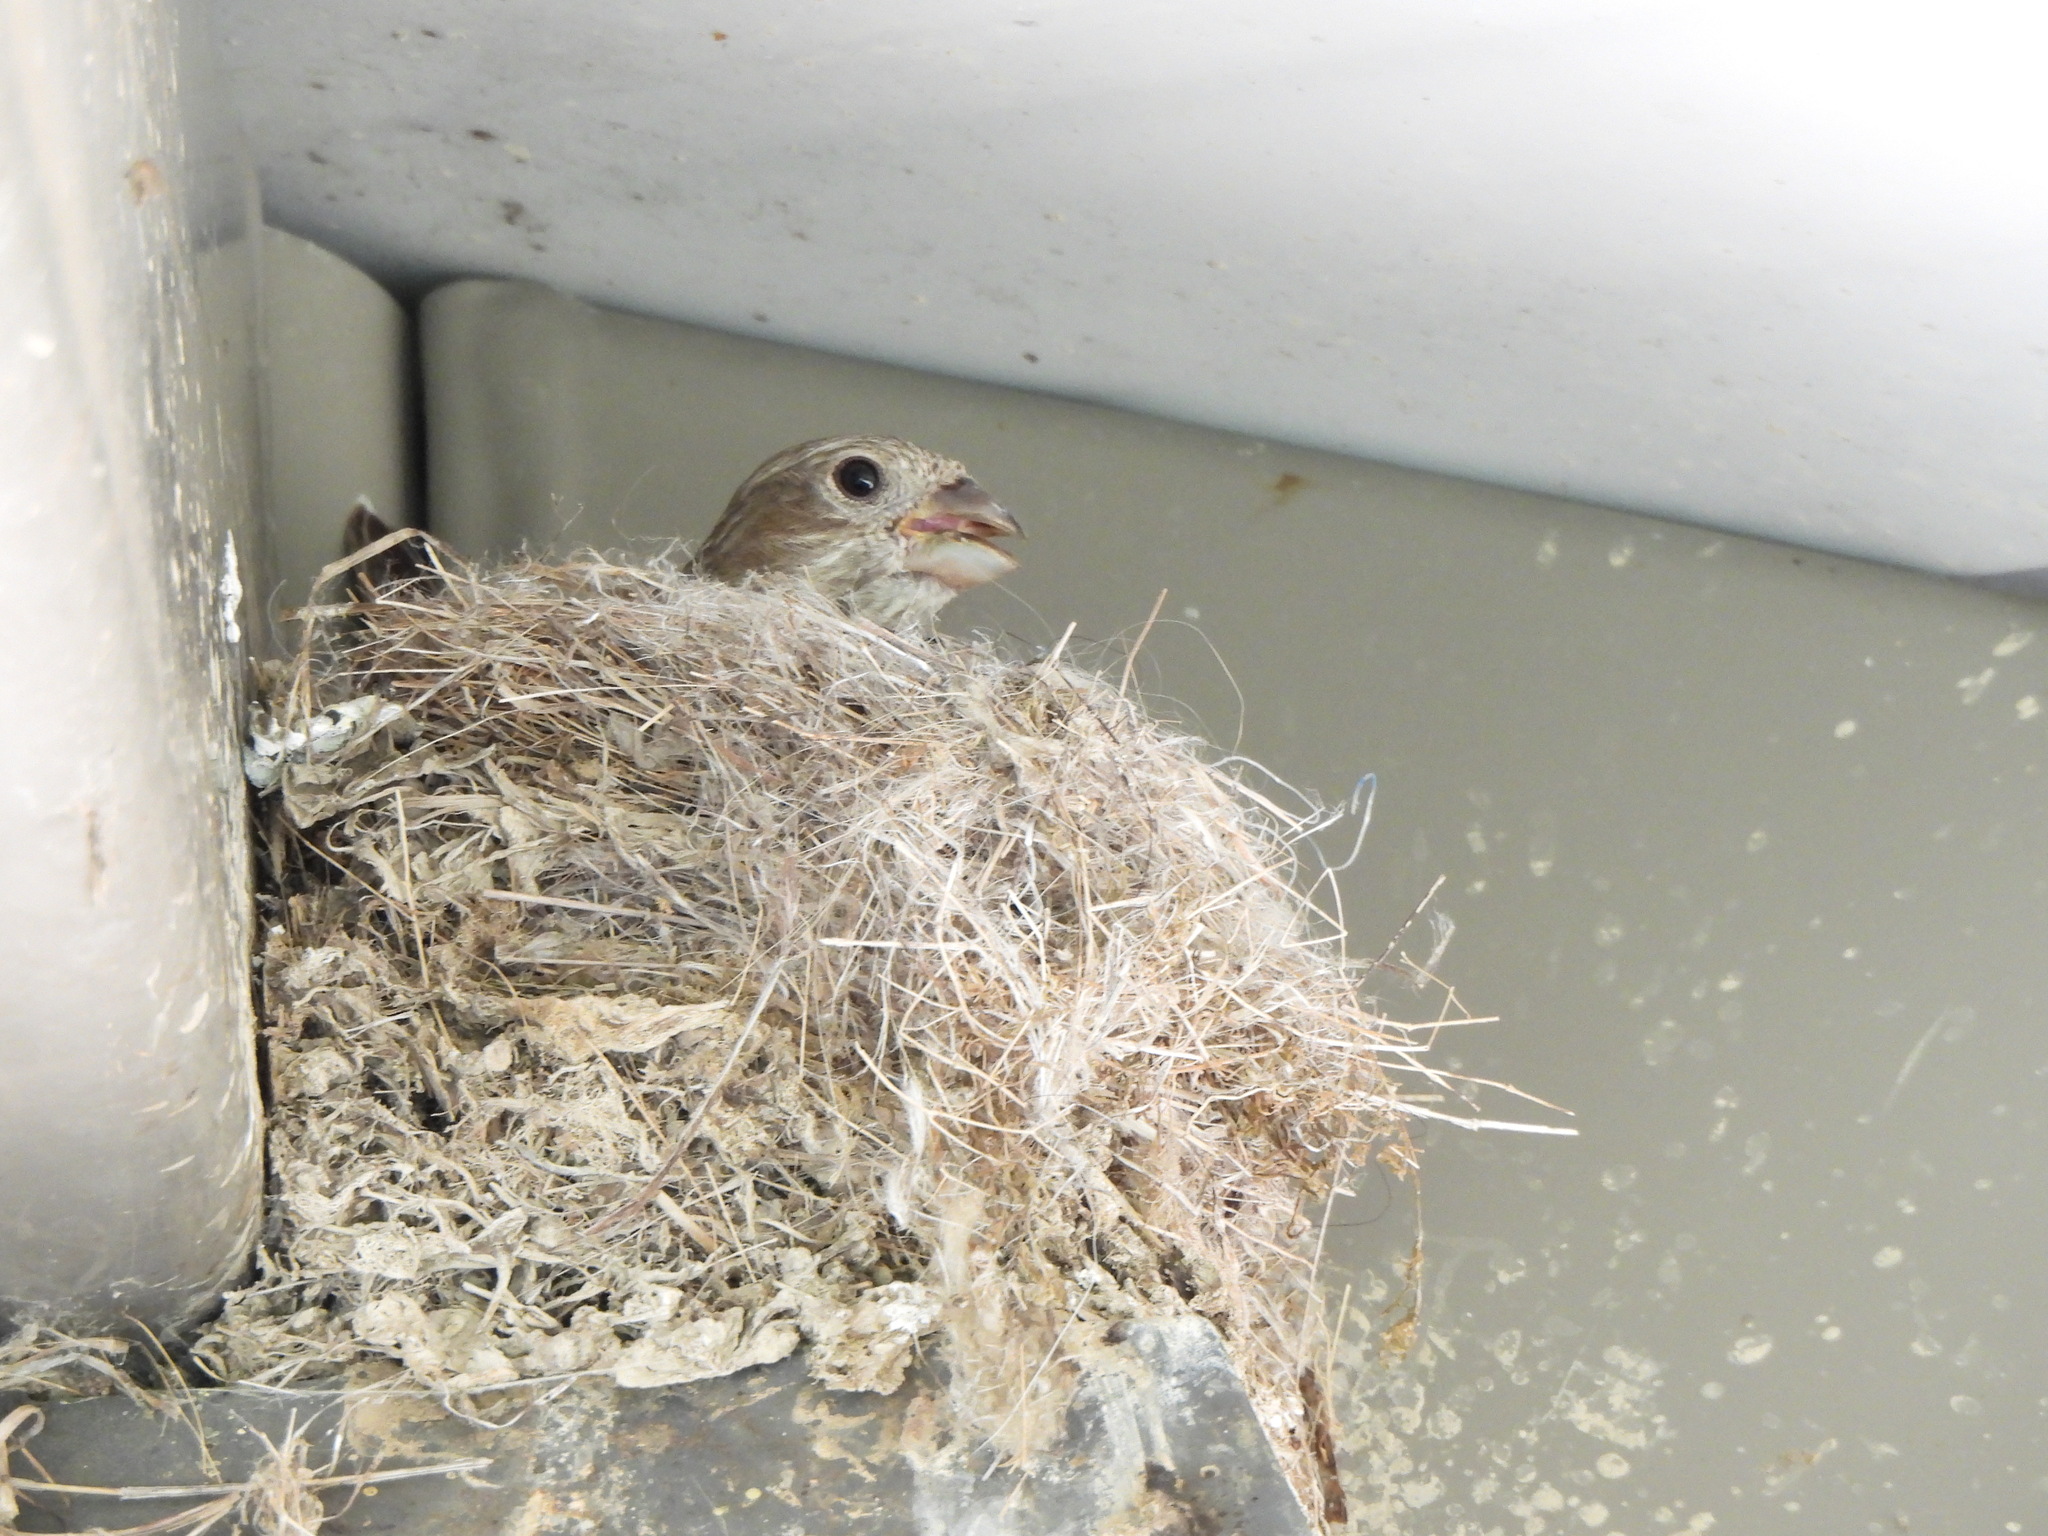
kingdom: Animalia
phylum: Chordata
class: Aves
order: Passeriformes
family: Fringillidae
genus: Haemorhous
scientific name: Haemorhous mexicanus
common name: House finch
